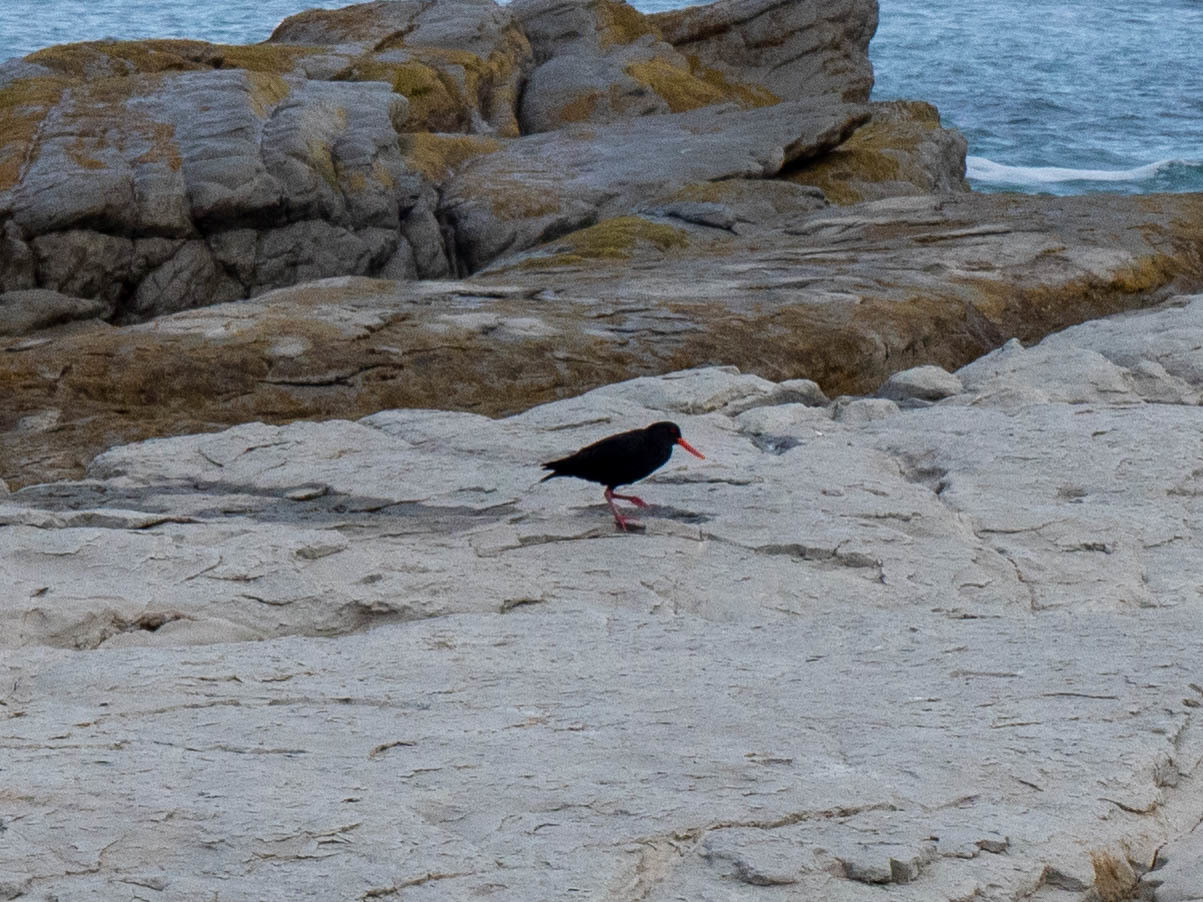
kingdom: Animalia
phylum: Chordata
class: Aves
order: Charadriiformes
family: Haematopodidae
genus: Haematopus
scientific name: Haematopus unicolor
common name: Variable oystercatcher
